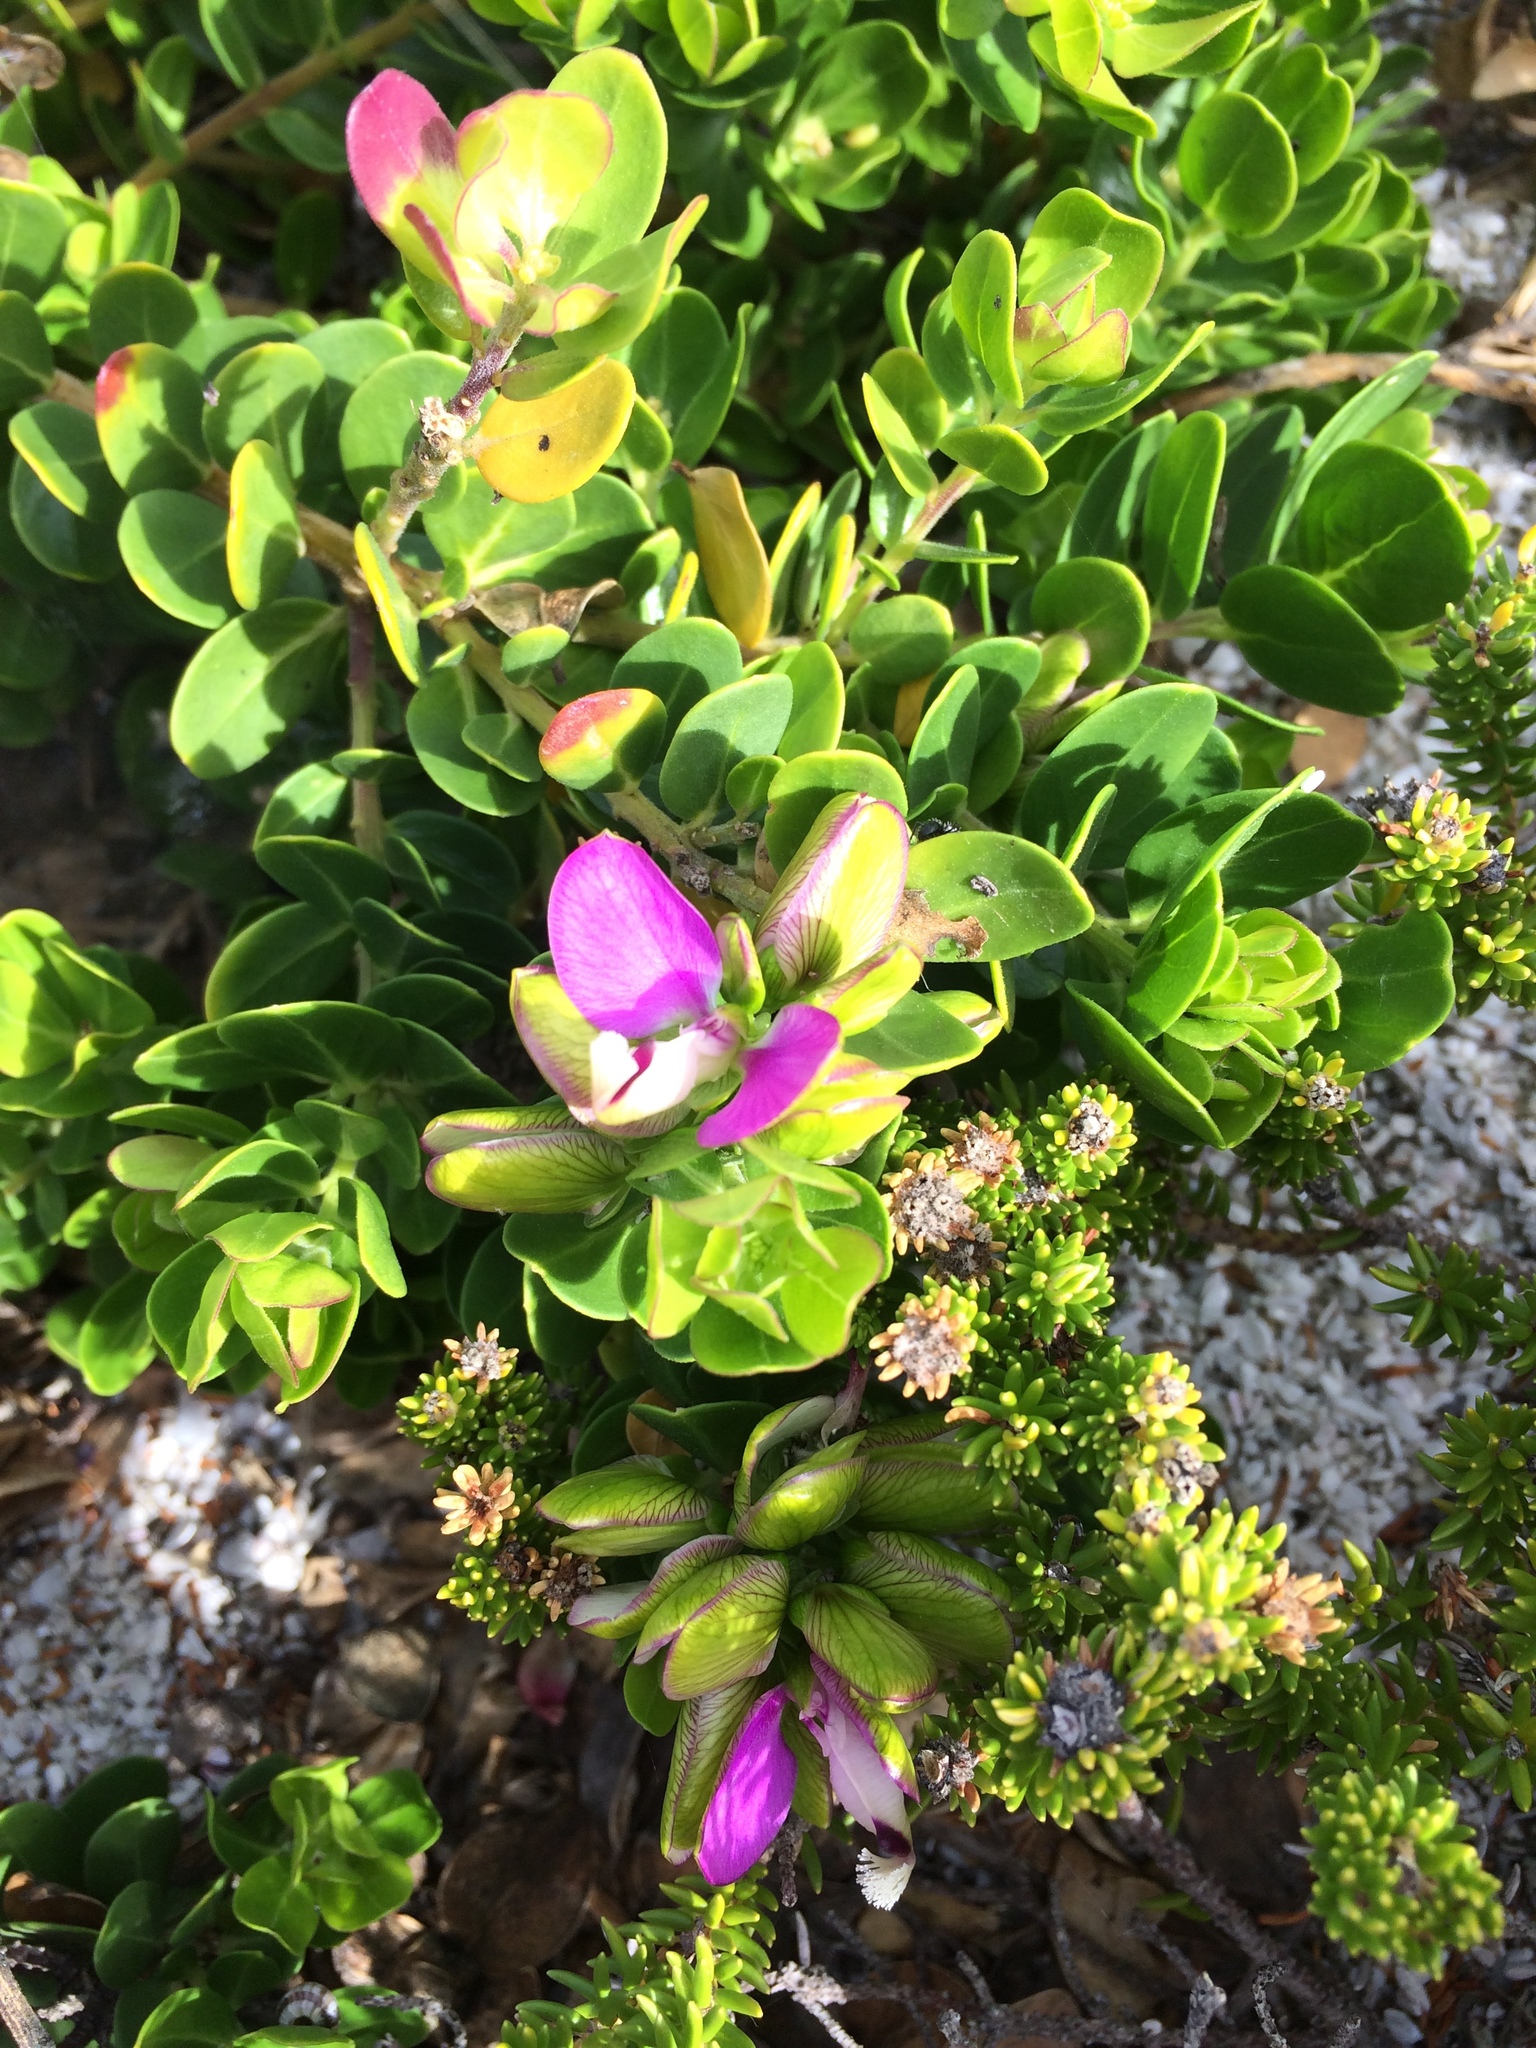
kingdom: Plantae
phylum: Tracheophyta
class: Magnoliopsida
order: Fabales
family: Polygalaceae
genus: Polygala
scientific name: Polygala myrtifolia
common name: Myrtle-leaf milkwort
